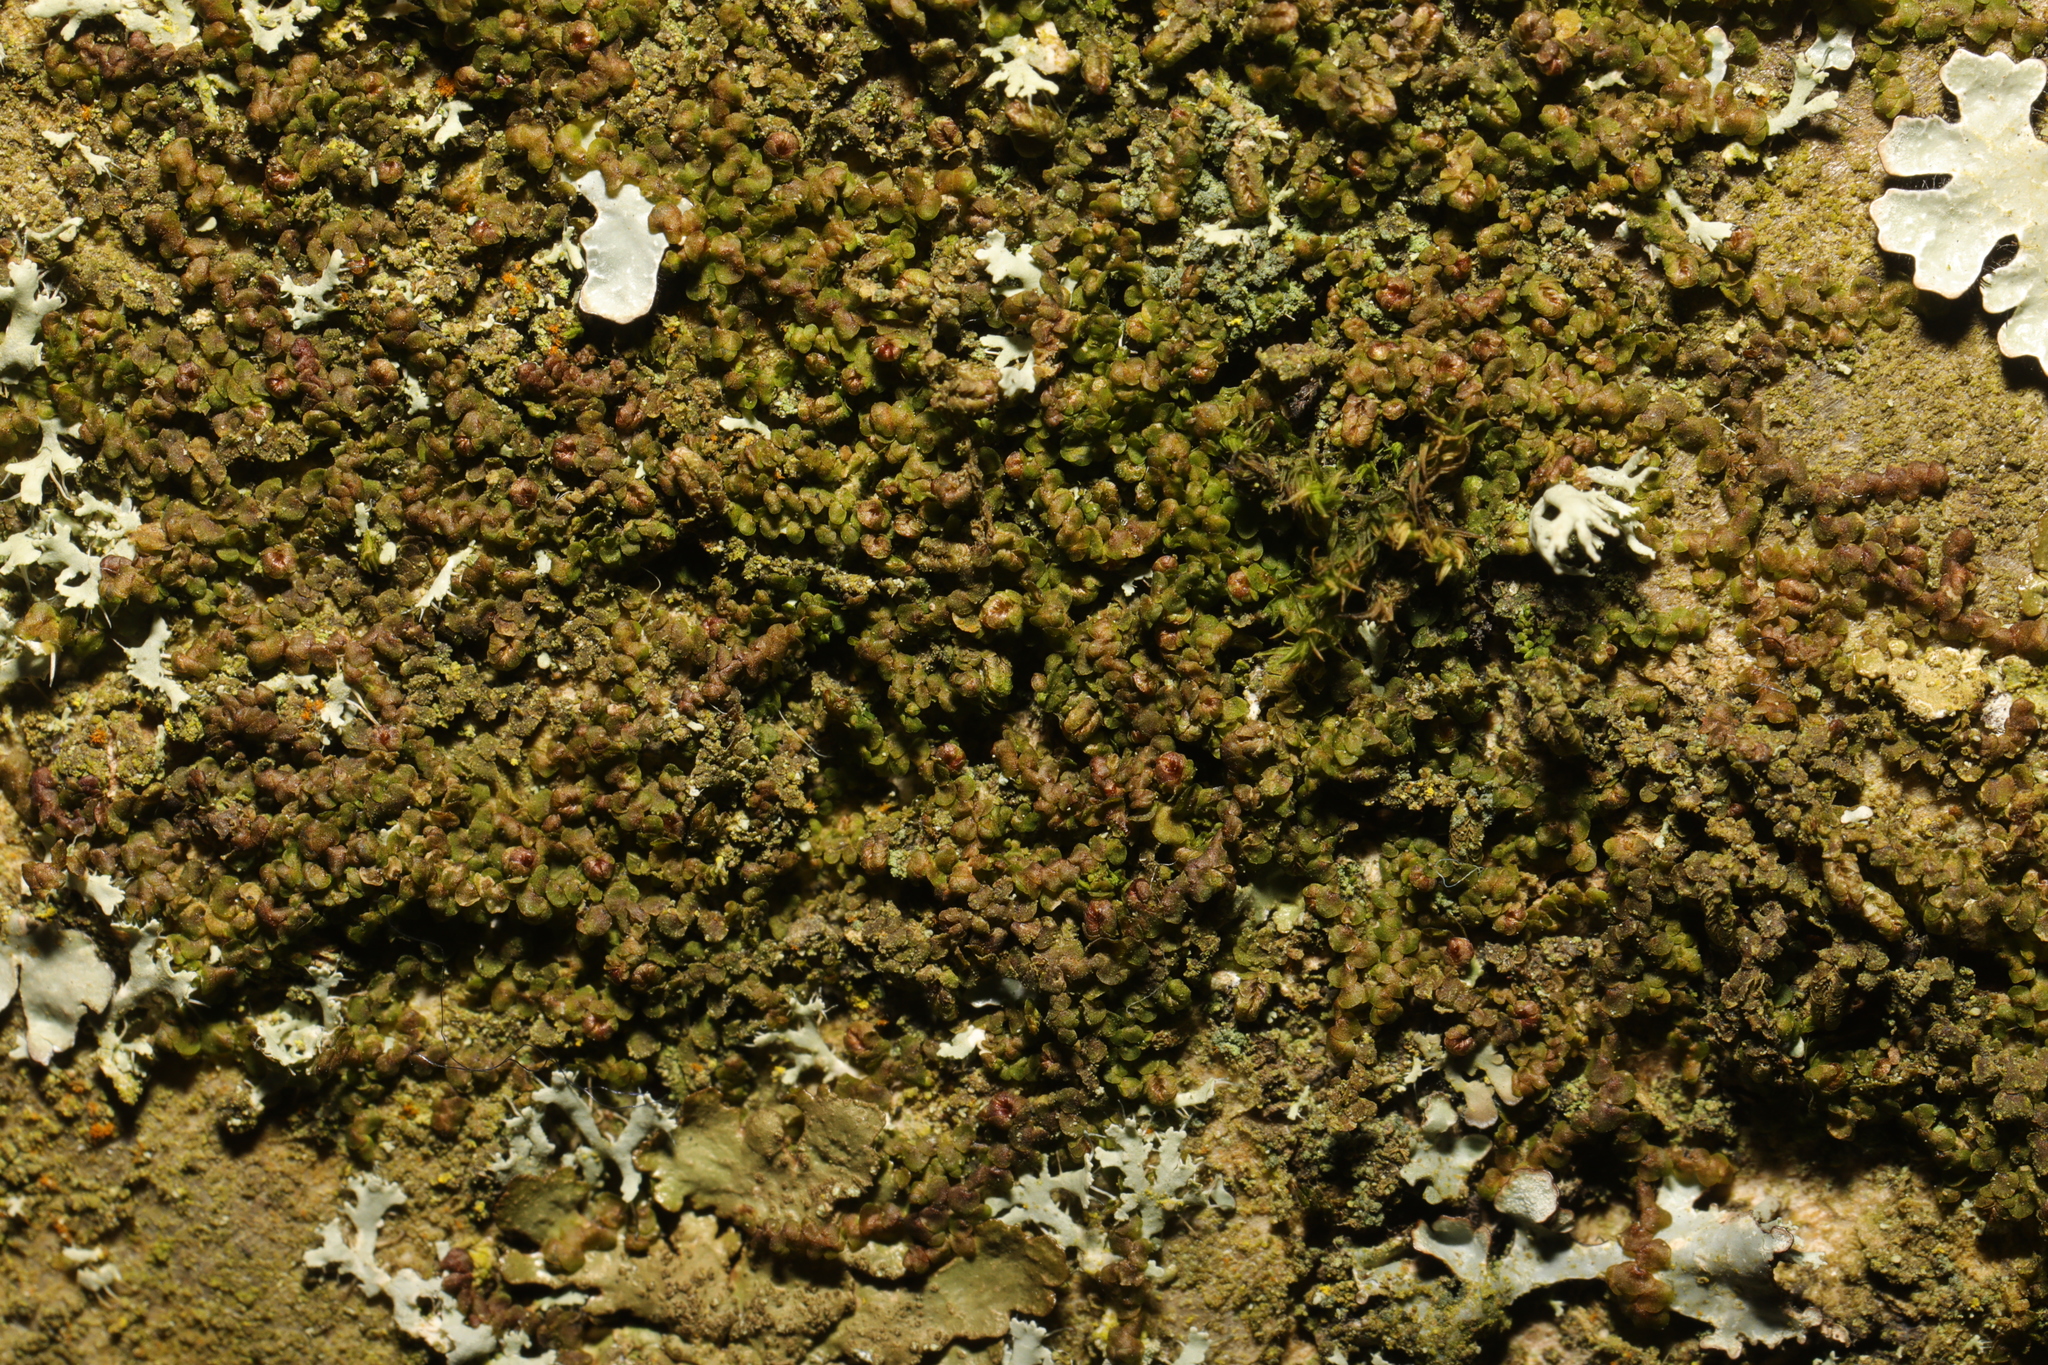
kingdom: Plantae
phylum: Marchantiophyta
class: Jungermanniopsida
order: Porellales
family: Frullaniaceae
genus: Frullania
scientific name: Frullania dilatata
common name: Dilated scalewort
